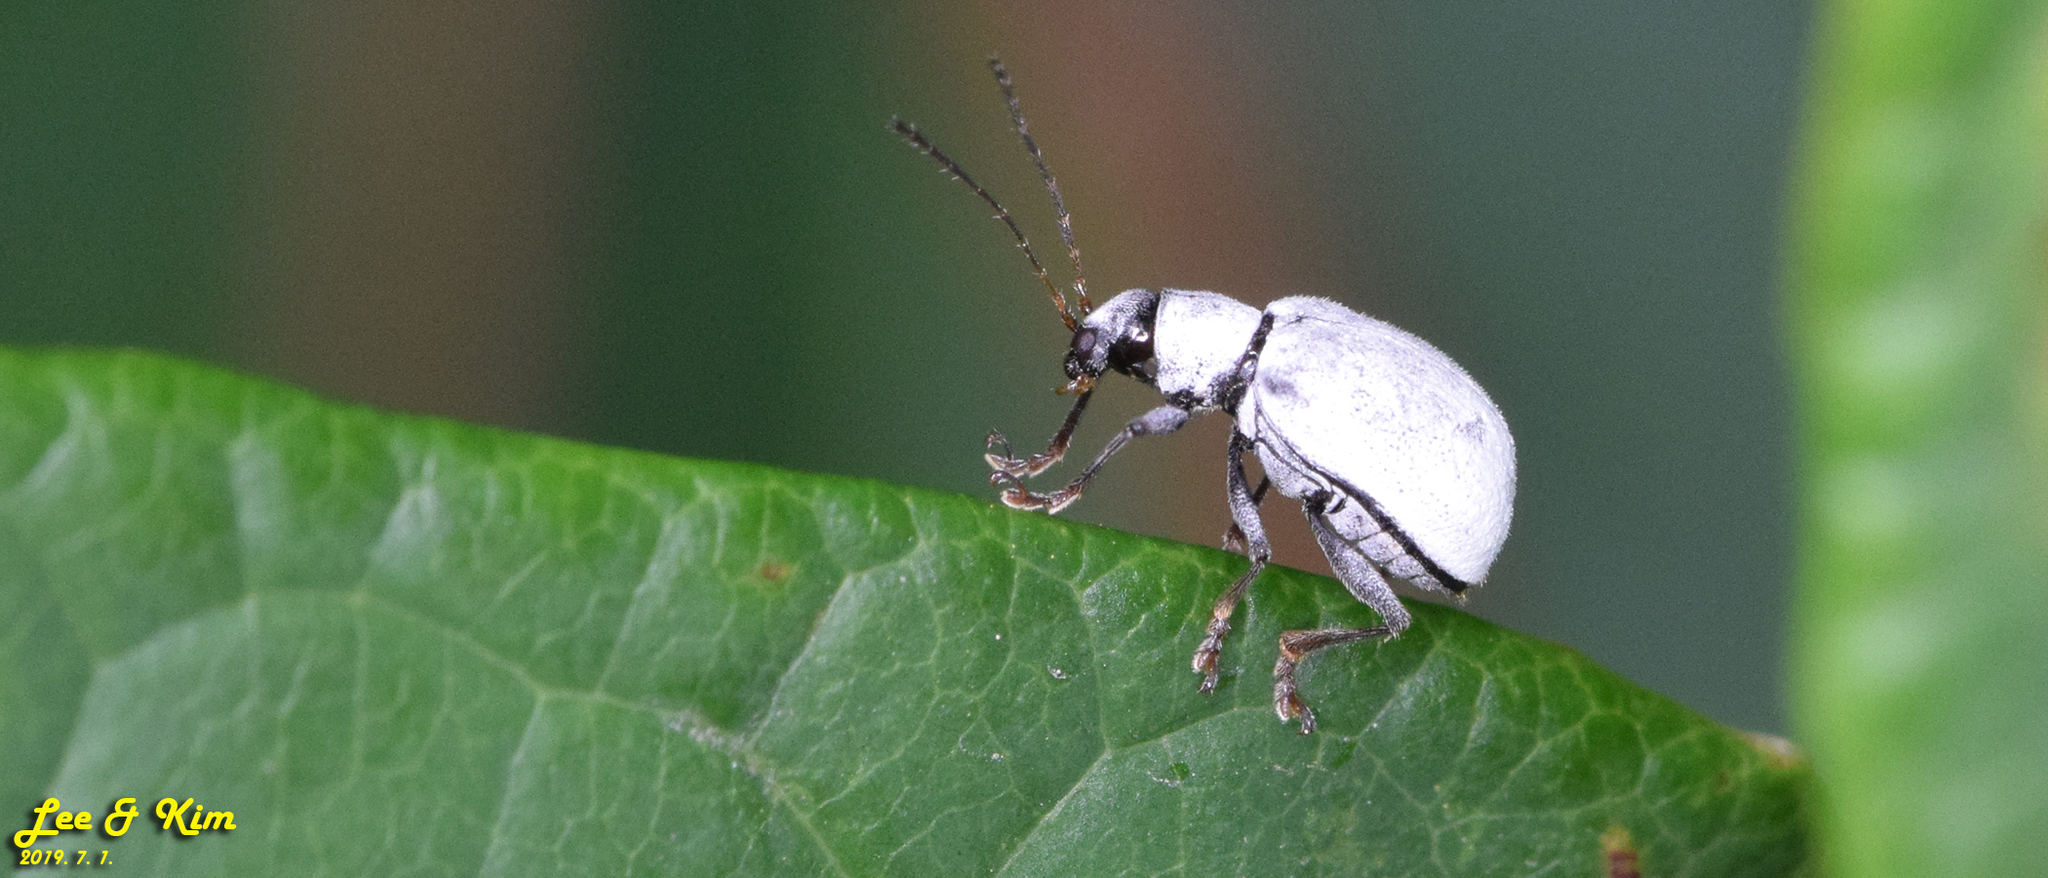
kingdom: Animalia
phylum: Arthropoda
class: Insecta
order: Coleoptera
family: Chrysomelidae
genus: Fidia
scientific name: Fidia
